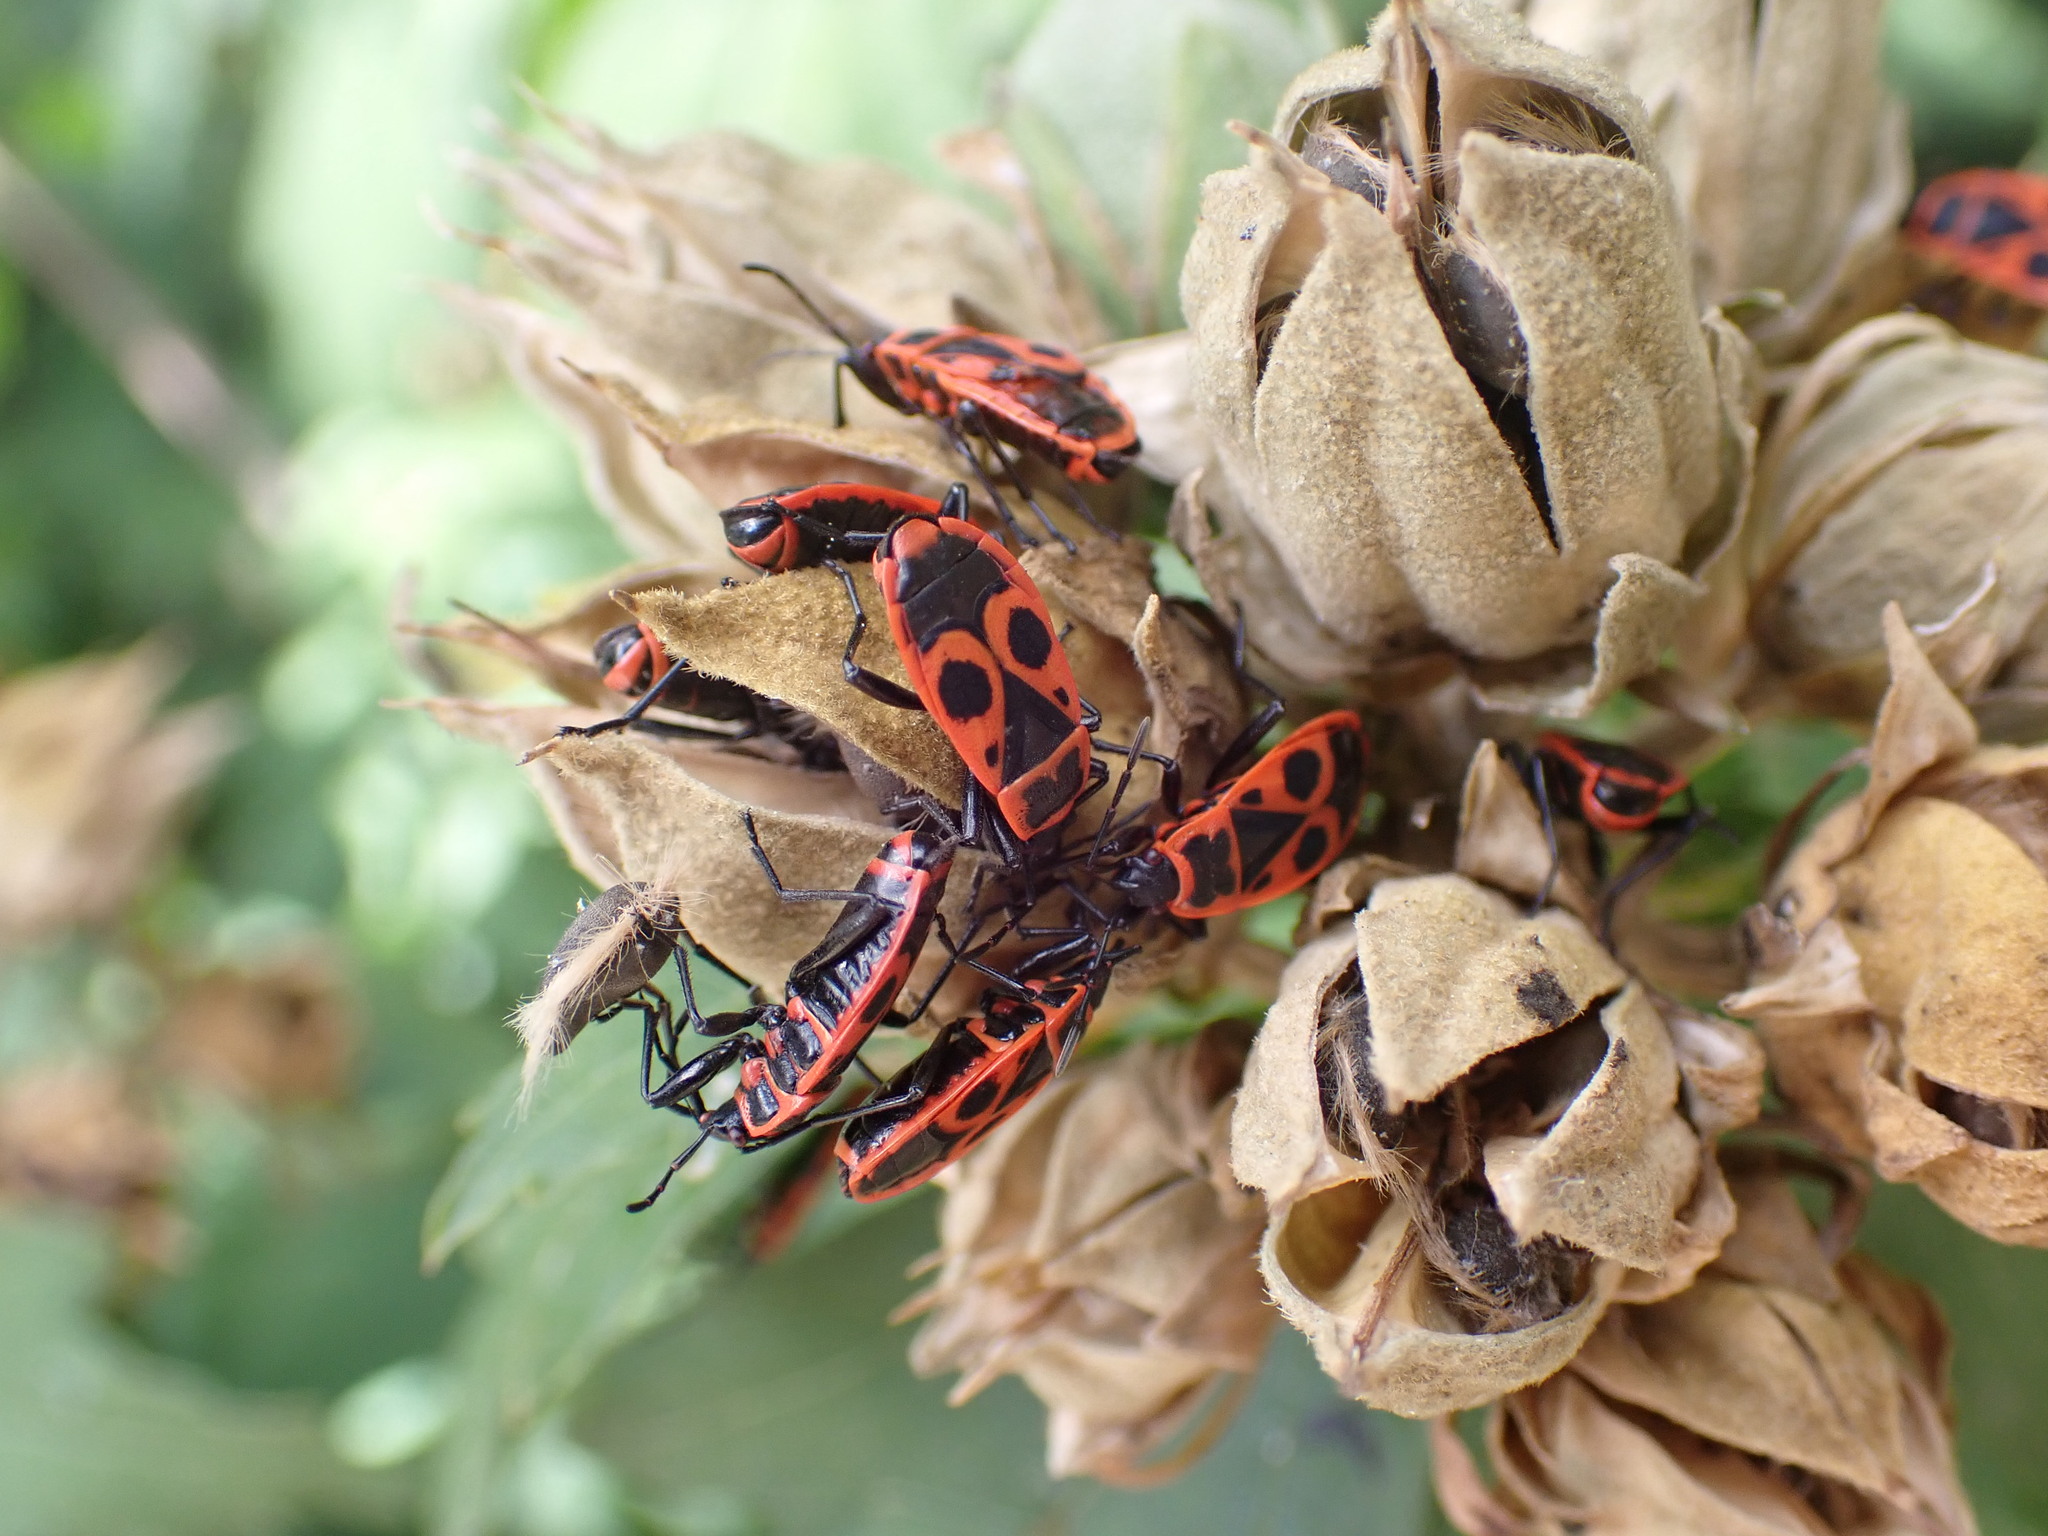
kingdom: Animalia
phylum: Arthropoda
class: Insecta
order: Hemiptera
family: Pyrrhocoridae
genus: Pyrrhocoris
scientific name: Pyrrhocoris apterus
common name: Firebug
